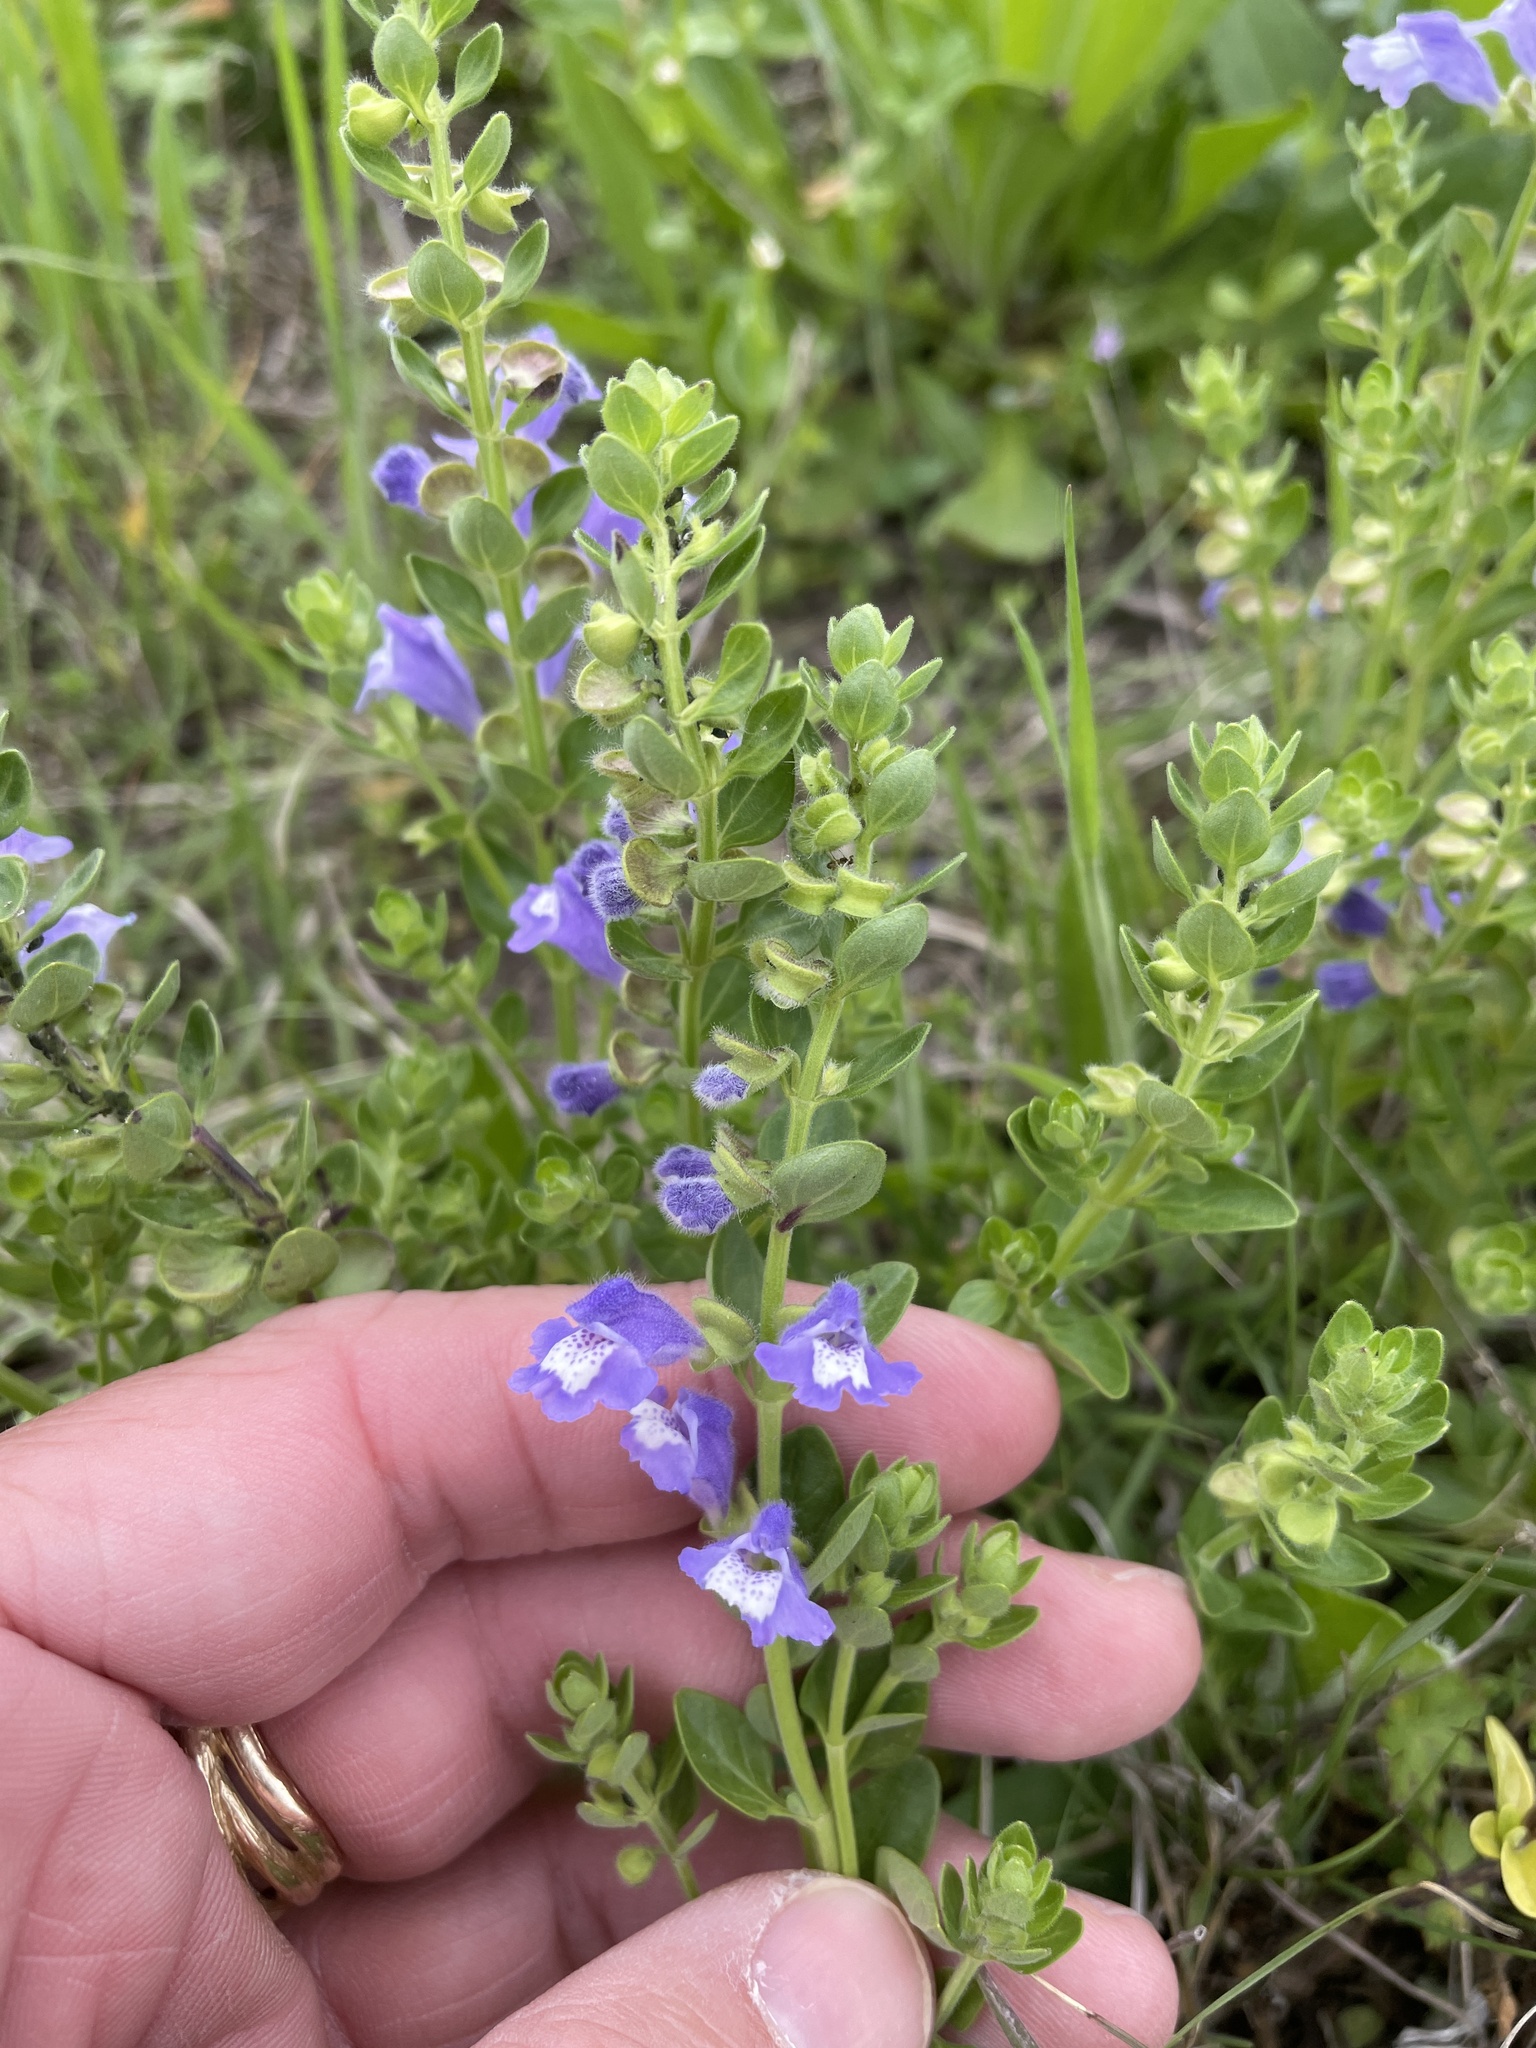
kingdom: Plantae
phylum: Tracheophyta
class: Magnoliopsida
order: Lamiales
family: Lamiaceae
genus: Scutellaria
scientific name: Scutellaria drummondii
